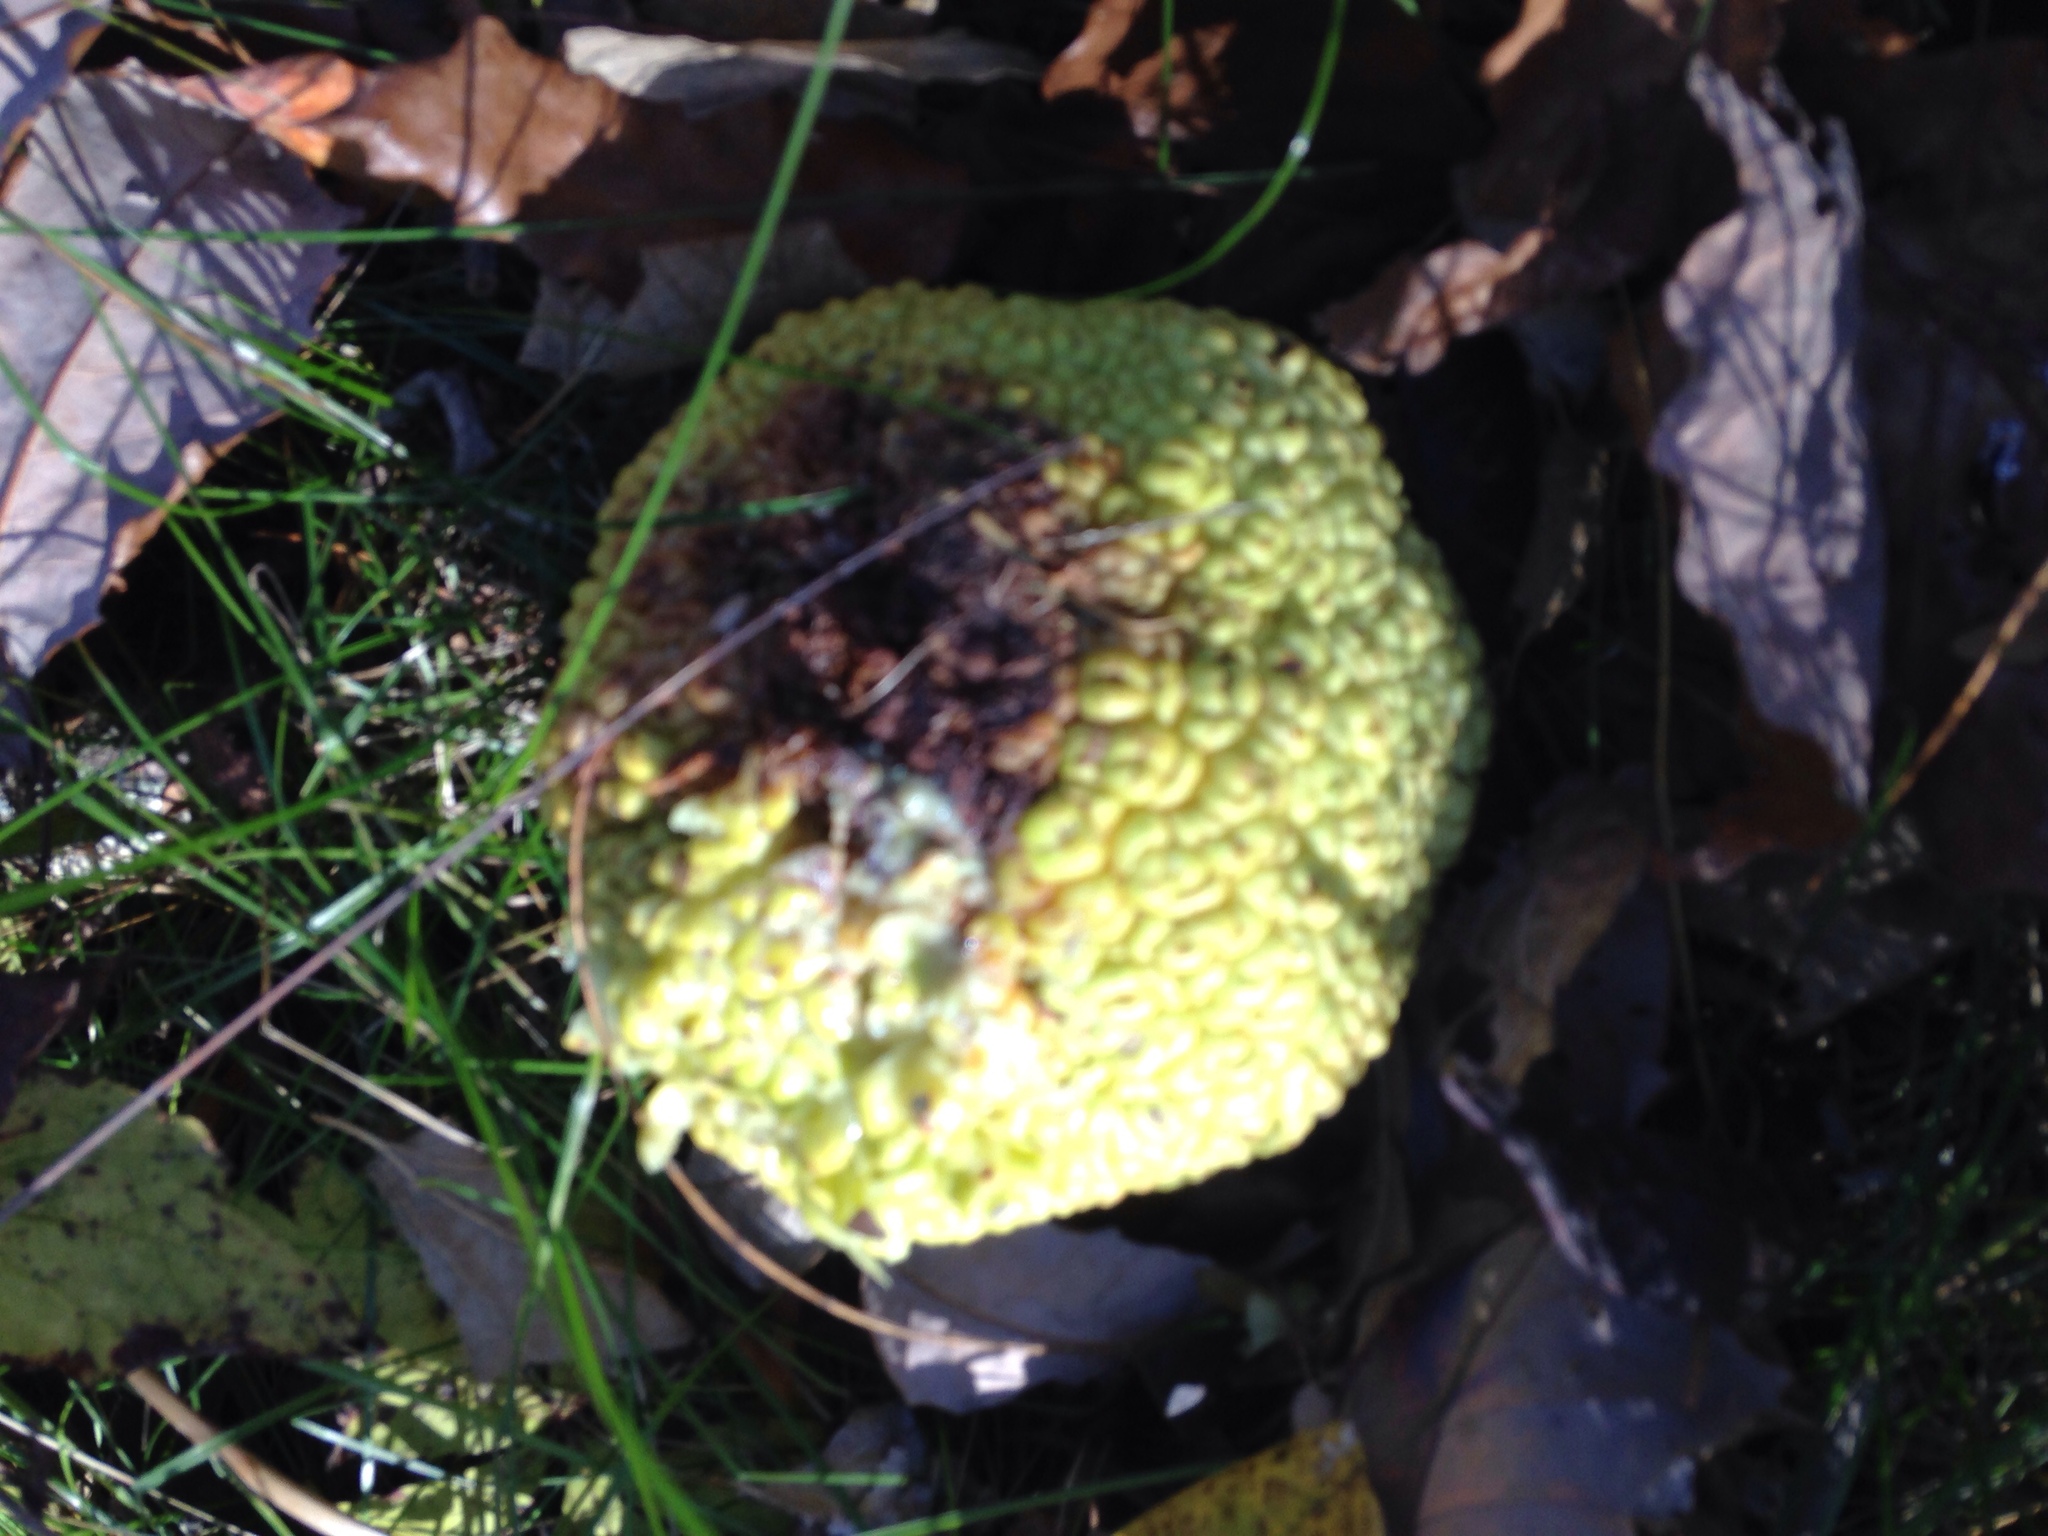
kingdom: Plantae
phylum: Tracheophyta
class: Magnoliopsida
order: Rosales
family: Moraceae
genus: Maclura
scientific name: Maclura pomifera
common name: Osage-orange
